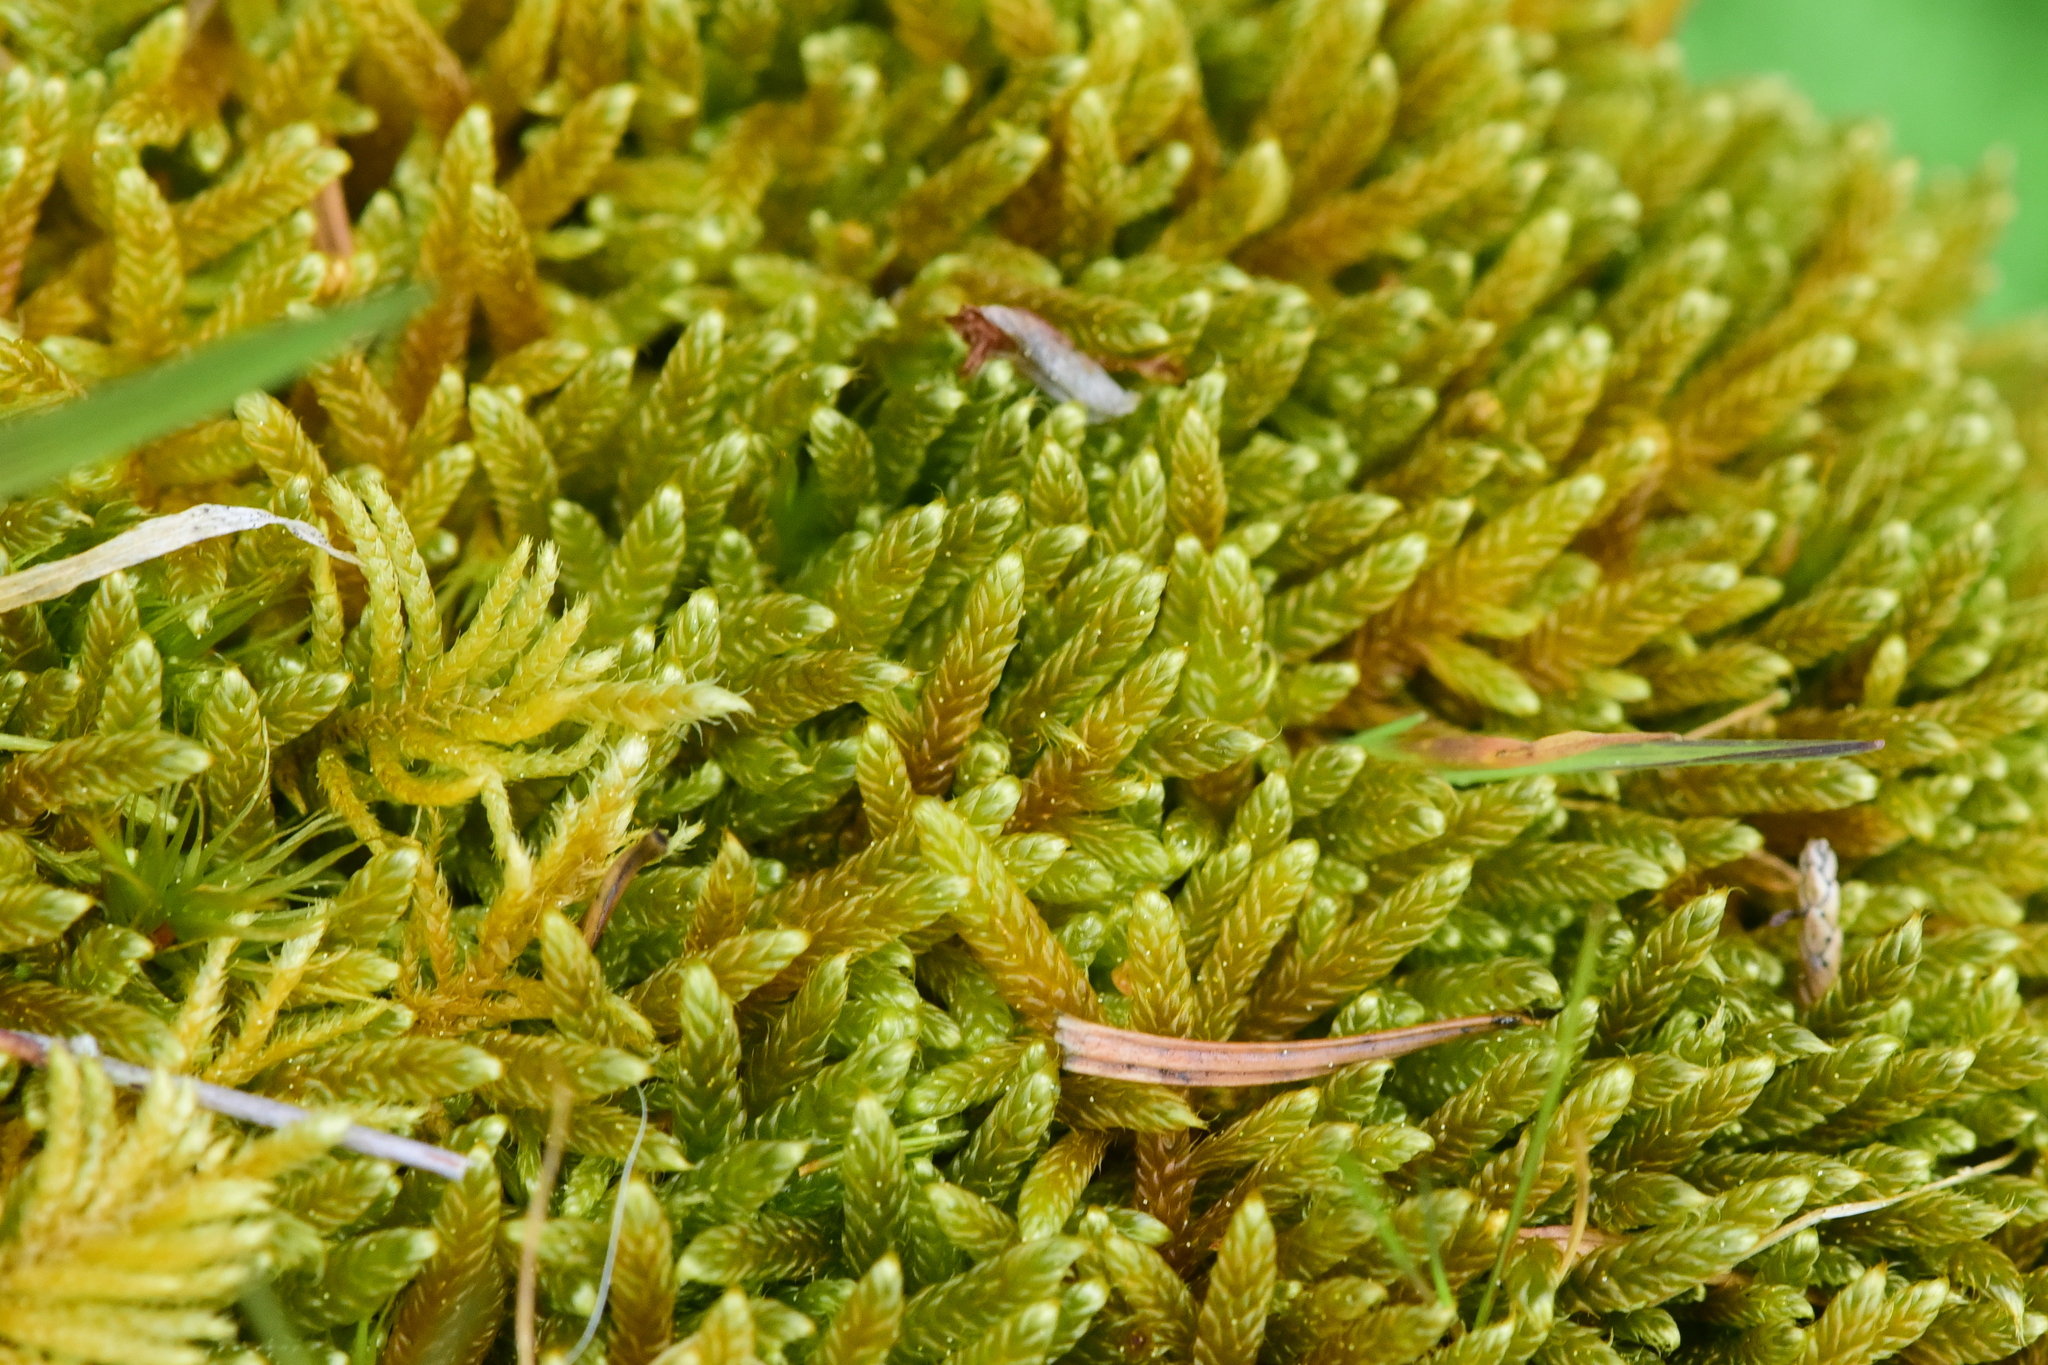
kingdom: Plantae
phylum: Bryophyta
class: Bryopsida
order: Hypnales
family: Hypnaceae
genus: Hypnum
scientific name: Hypnum cupressiforme
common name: Cypress-leaved plait-moss
